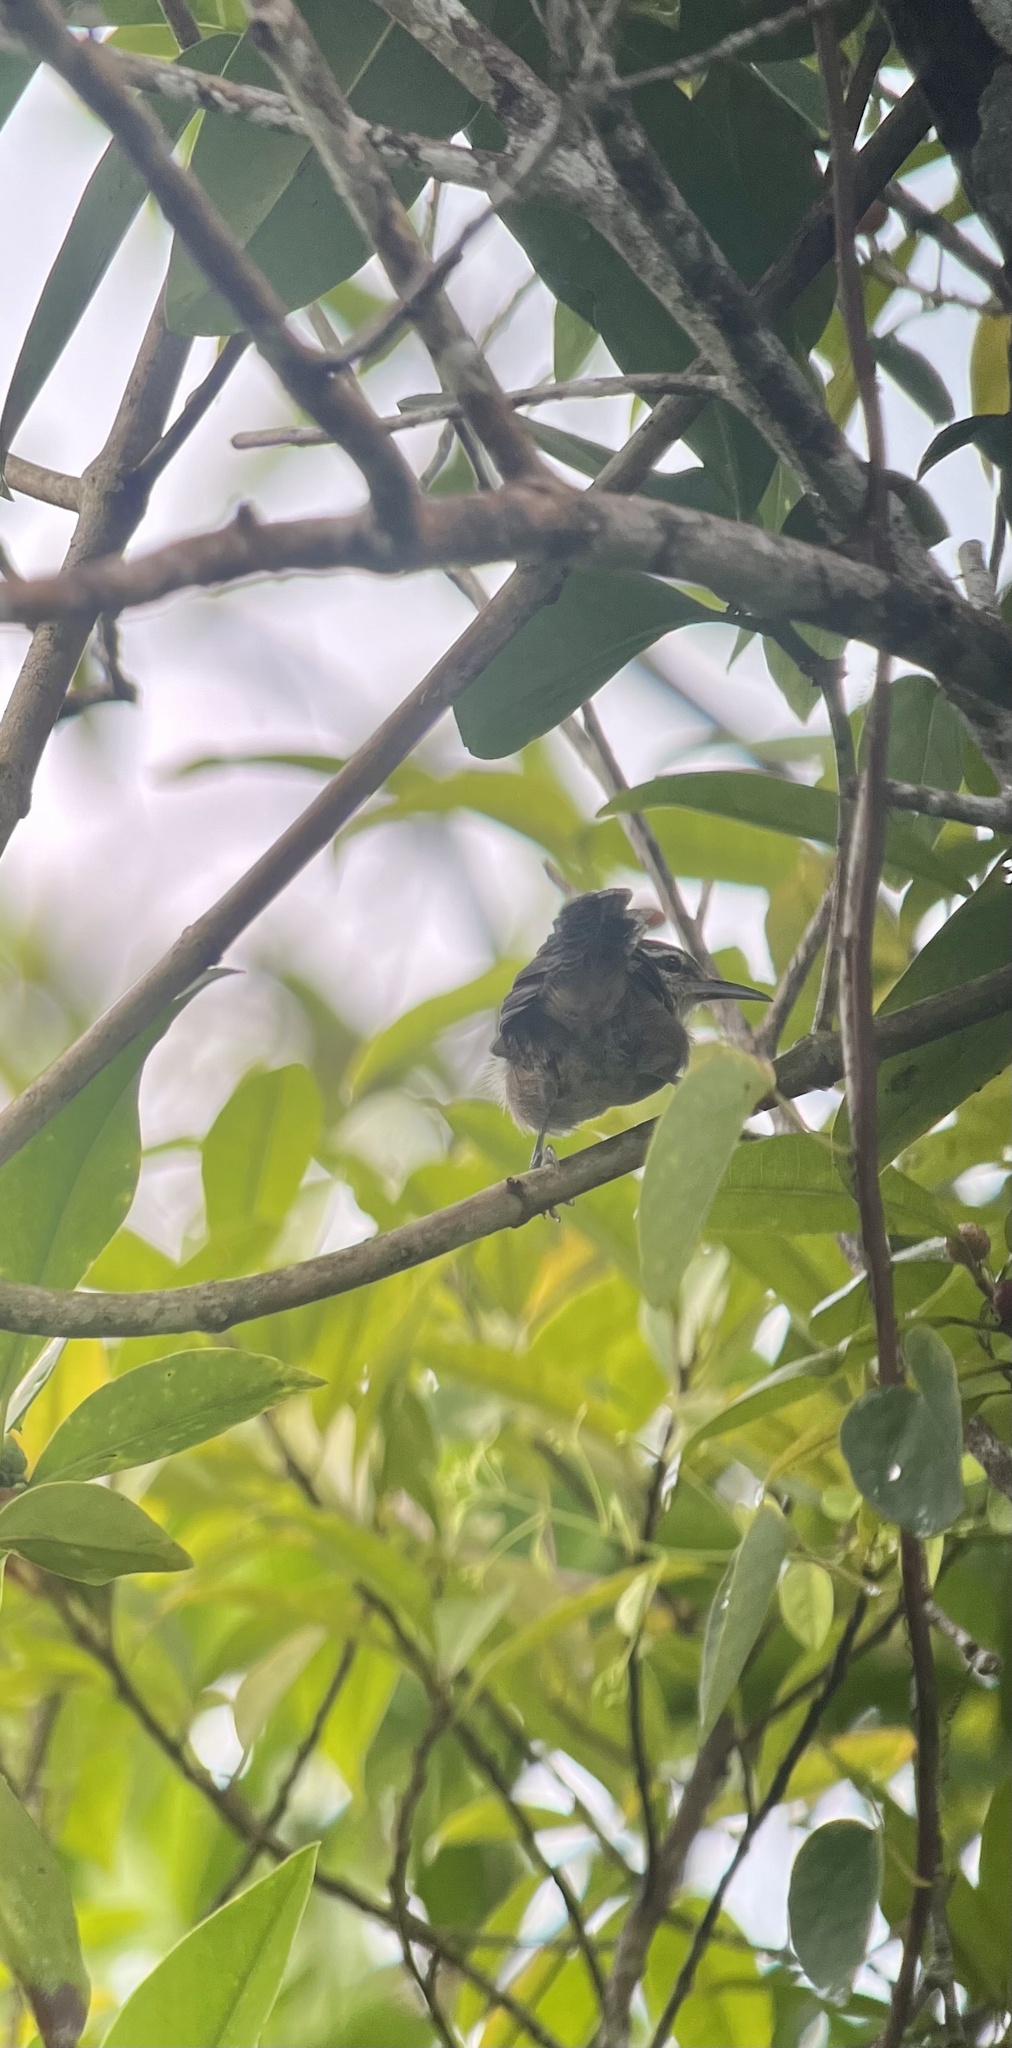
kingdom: Animalia
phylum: Chordata
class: Aves
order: Passeriformes
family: Troglodytidae
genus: Cantorchilus
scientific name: Cantorchilus modestus
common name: Cabanis's wren
